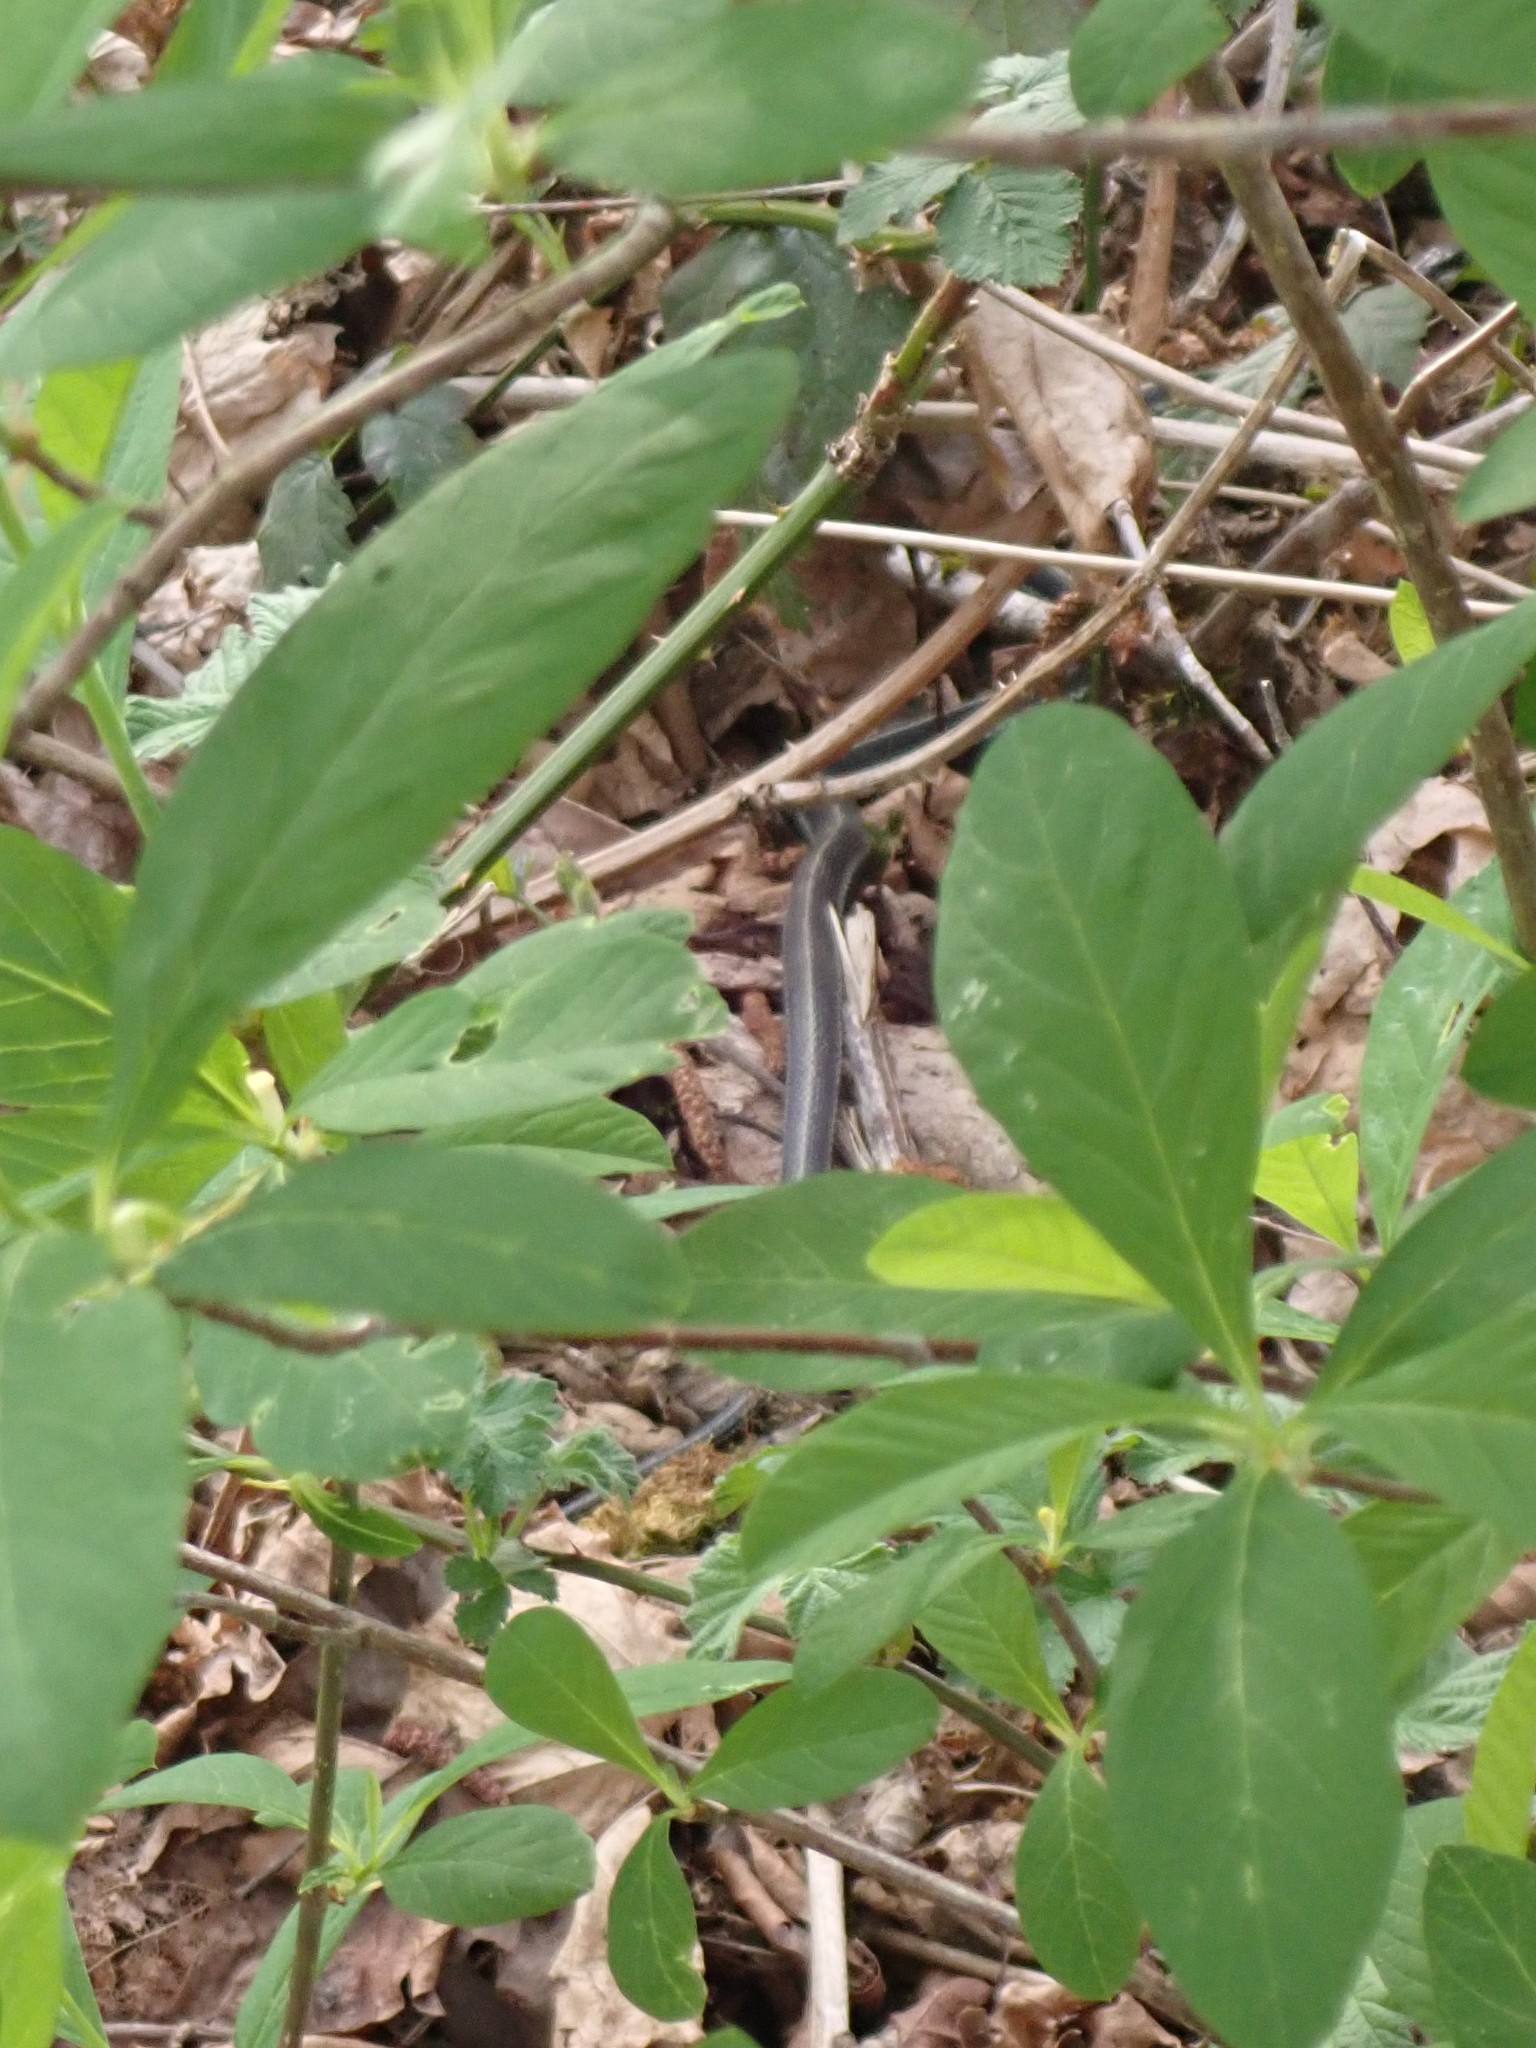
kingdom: Animalia
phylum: Chordata
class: Squamata
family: Colubridae
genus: Thamnophis
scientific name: Thamnophis
